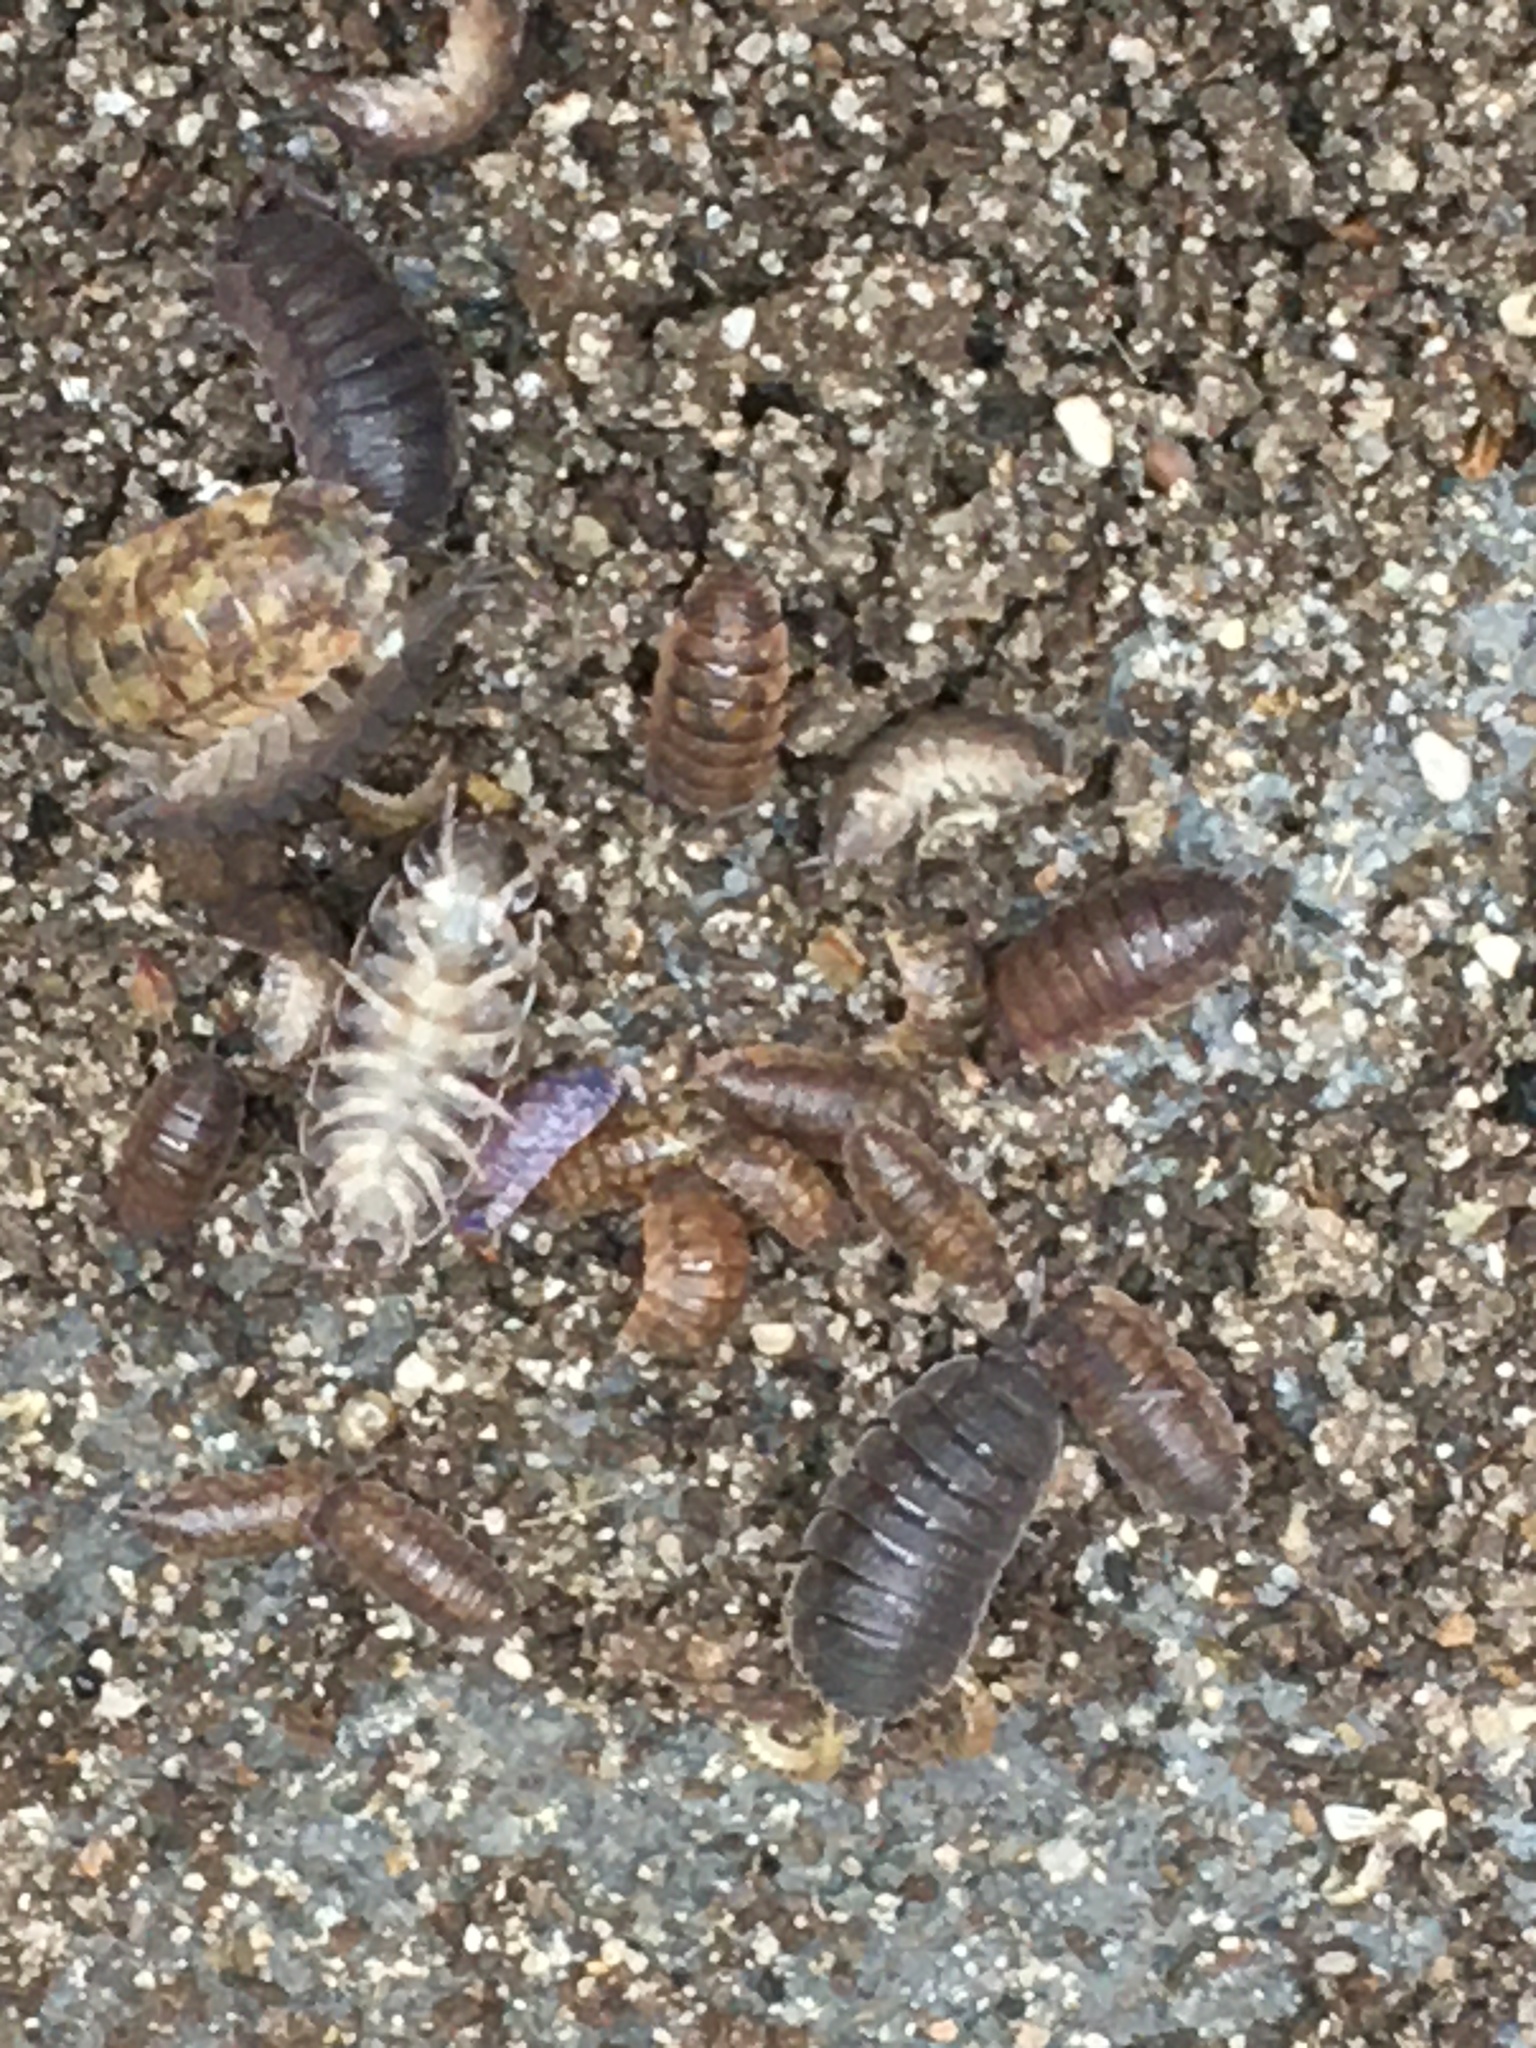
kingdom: Animalia
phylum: Arthropoda
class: Malacostraca
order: Isopoda
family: Porcellionidae
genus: Porcellio
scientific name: Porcellio scaber
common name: Common rough woodlouse
